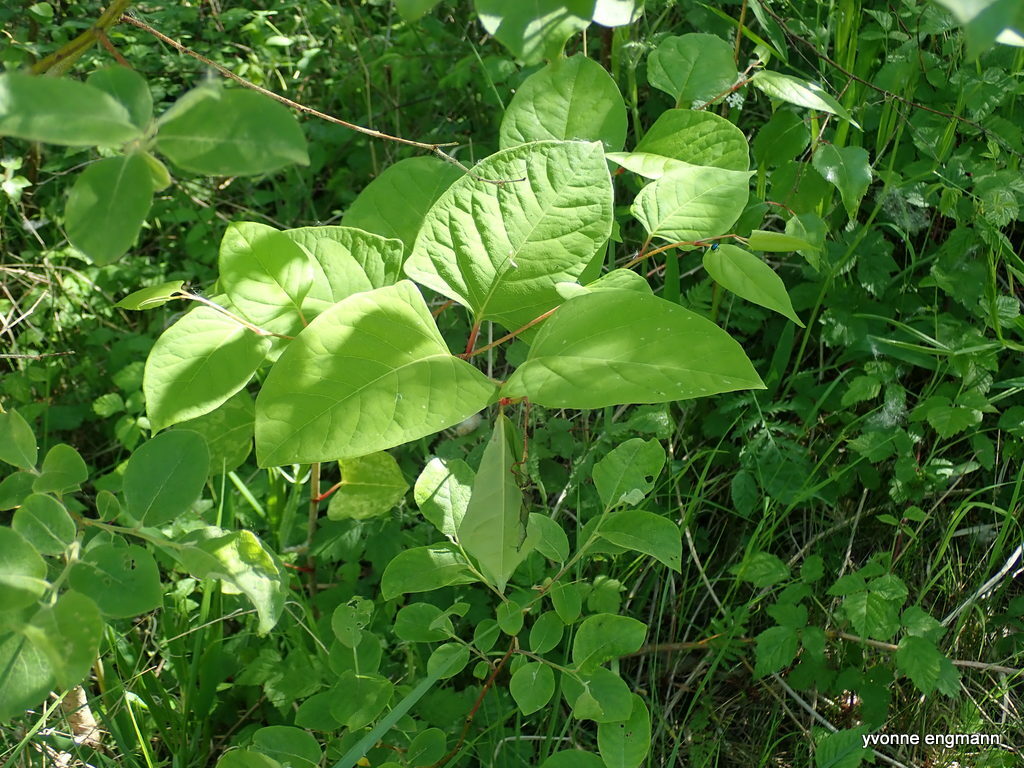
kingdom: Plantae
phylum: Tracheophyta
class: Magnoliopsida
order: Caryophyllales
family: Polygonaceae
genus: Reynoutria
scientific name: Reynoutria japonica
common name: Japanese knotweed
